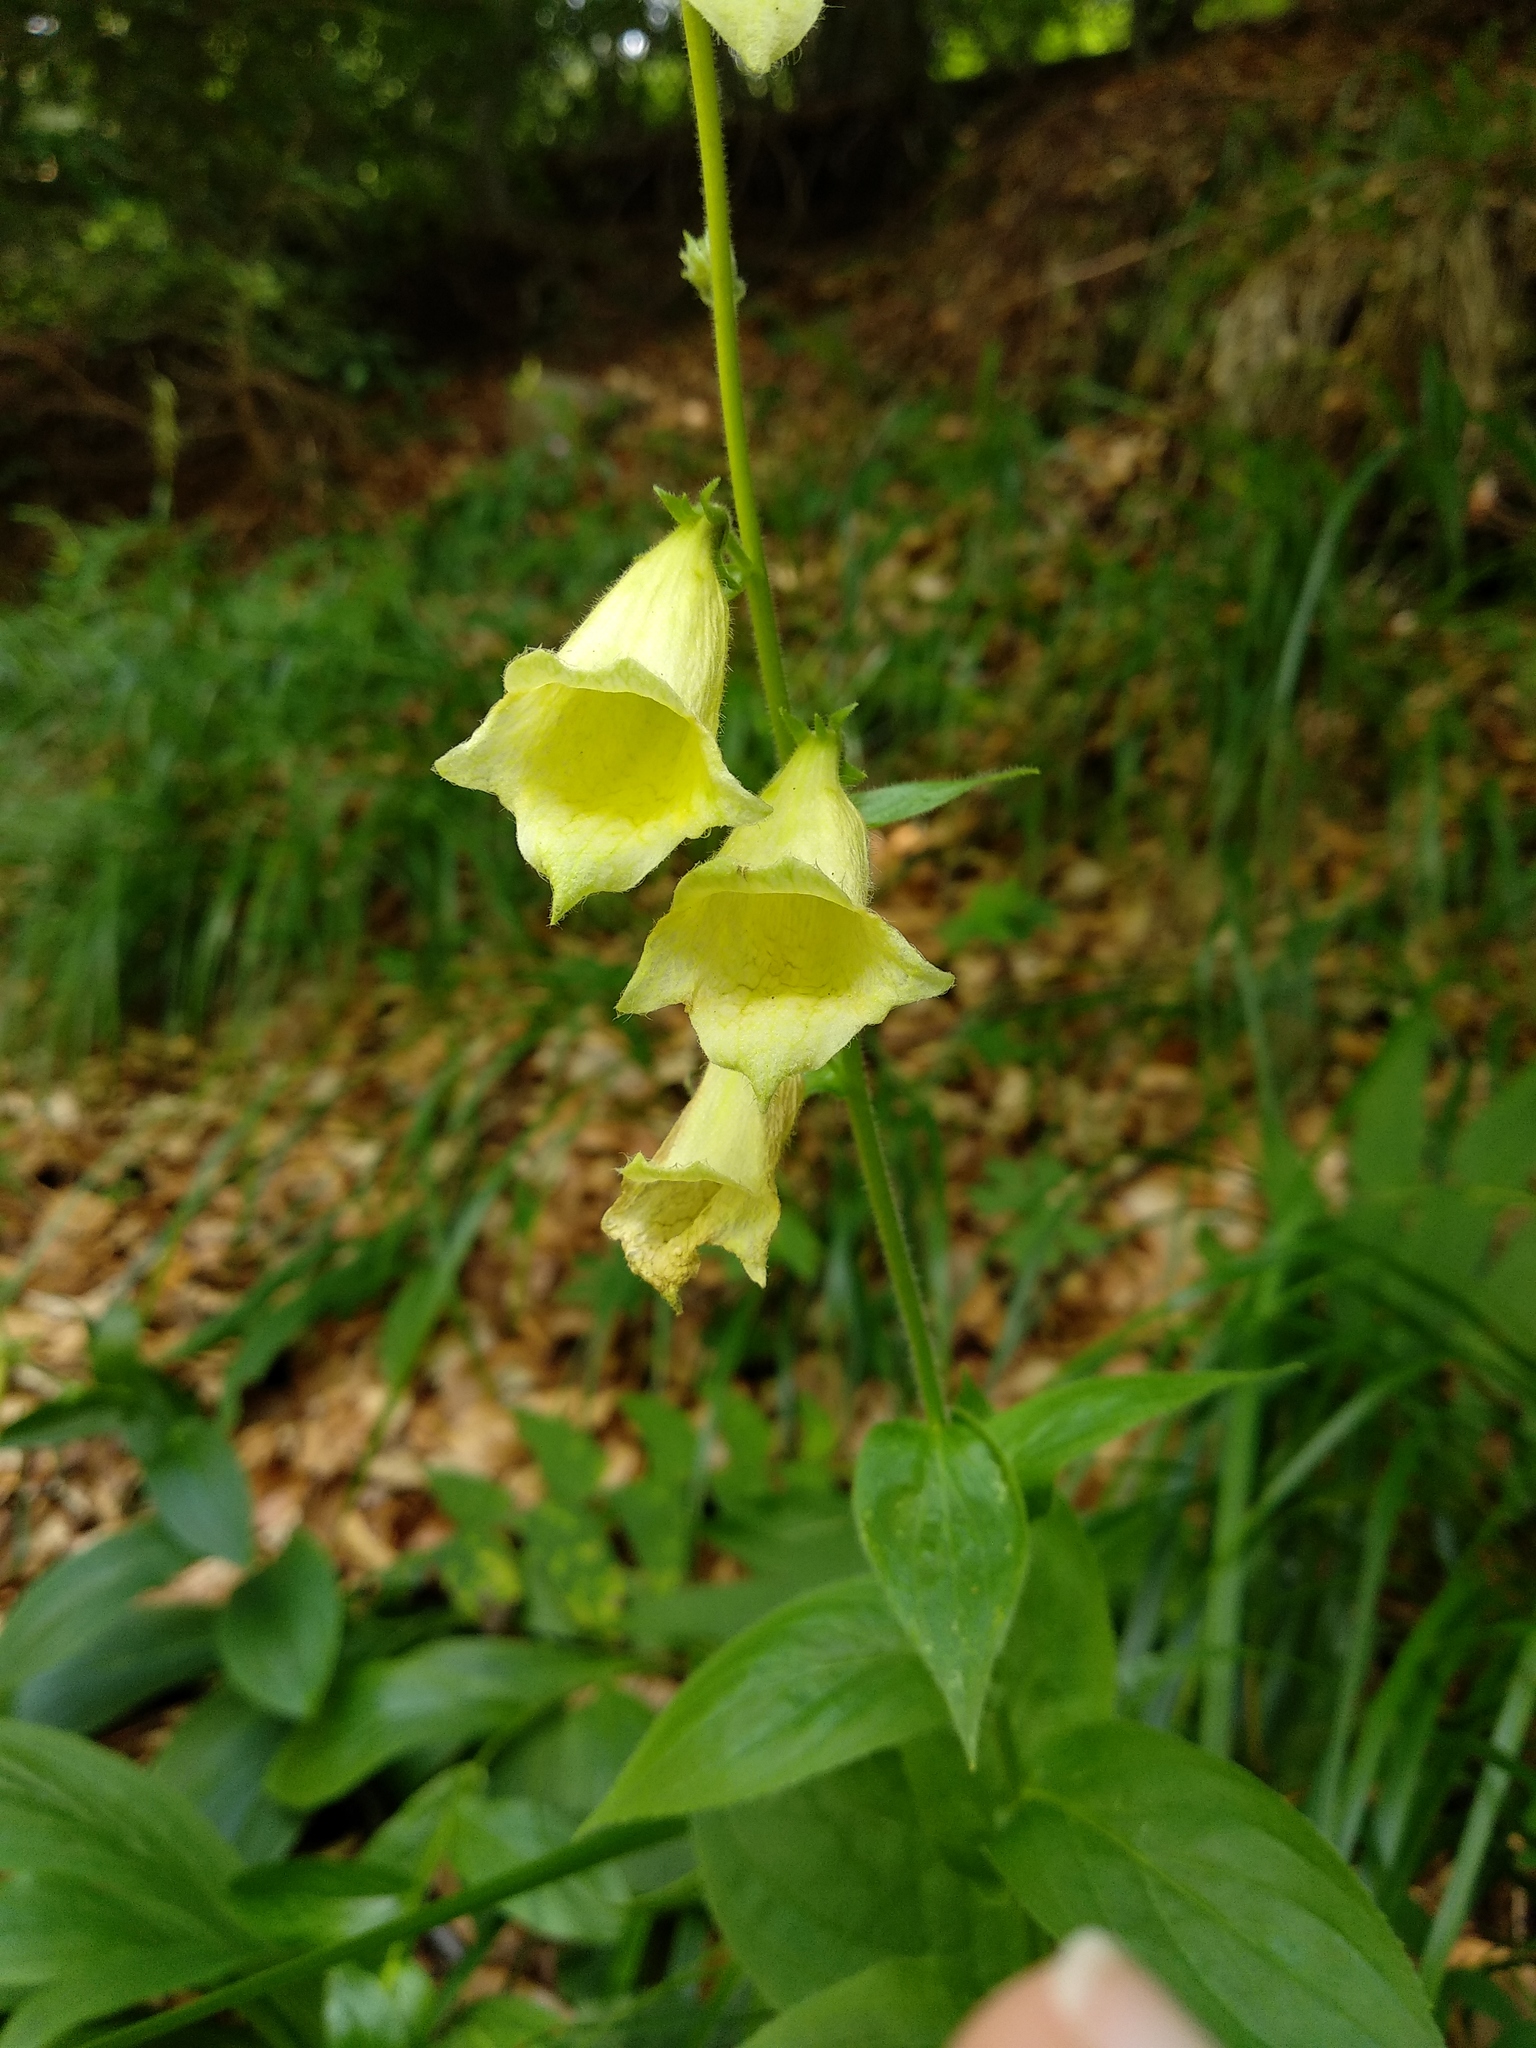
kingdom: Plantae
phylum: Tracheophyta
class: Magnoliopsida
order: Lamiales
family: Plantaginaceae
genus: Digitalis
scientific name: Digitalis grandiflora
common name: Yellow foxglove
